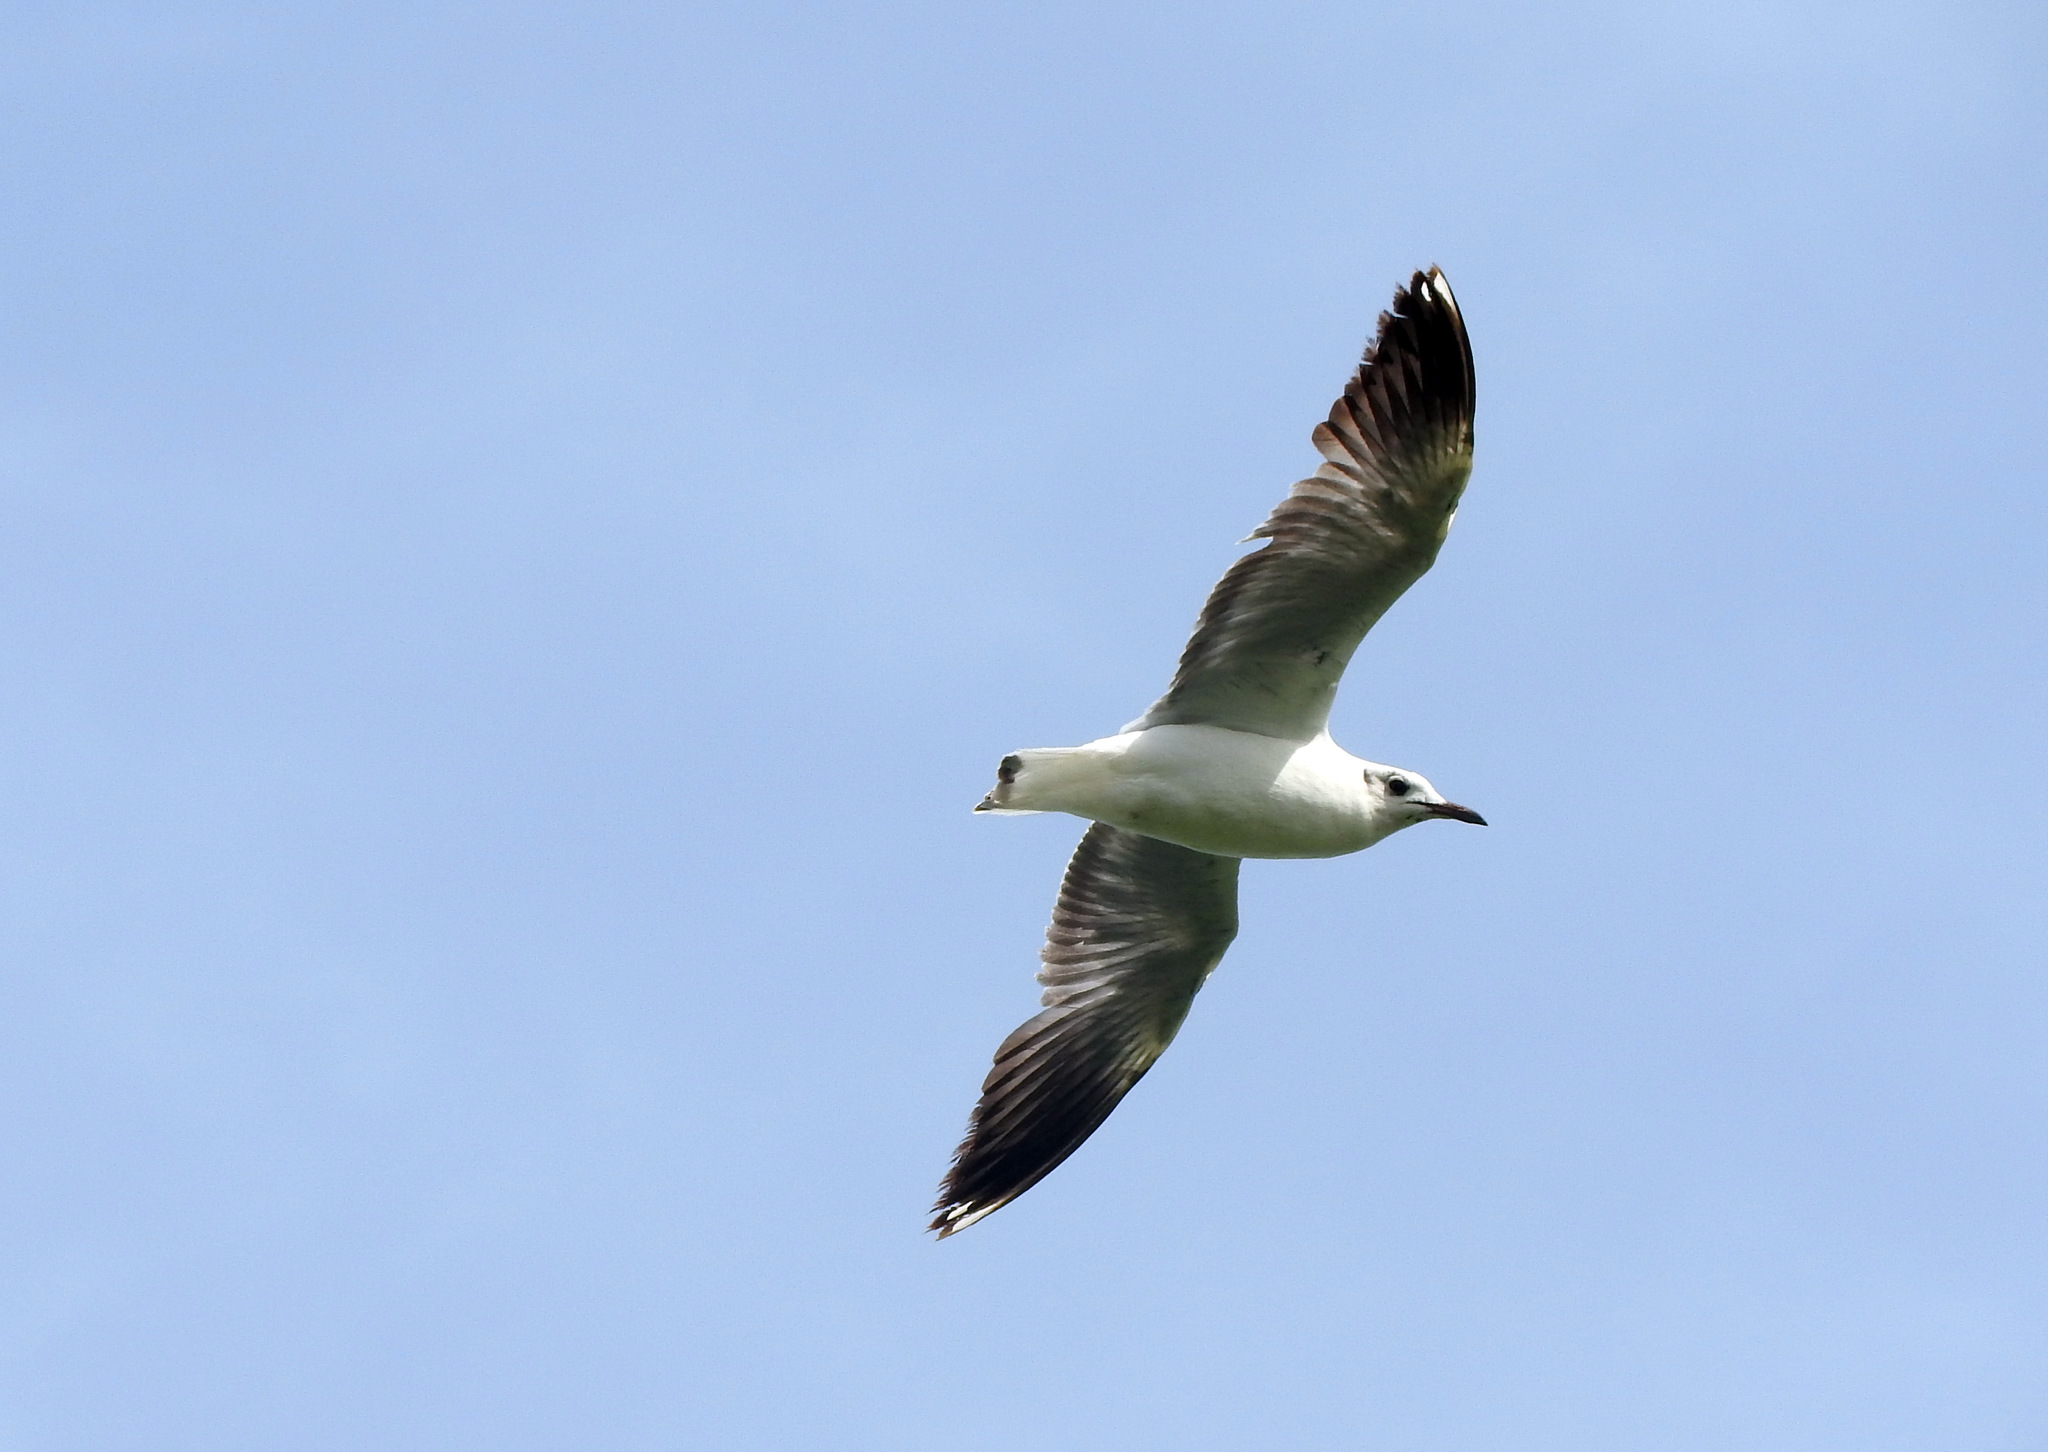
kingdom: Animalia
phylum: Chordata
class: Aves
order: Charadriiformes
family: Laridae
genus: Chroicocephalus
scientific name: Chroicocephalus maculipennis
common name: Brown-hooded gull
